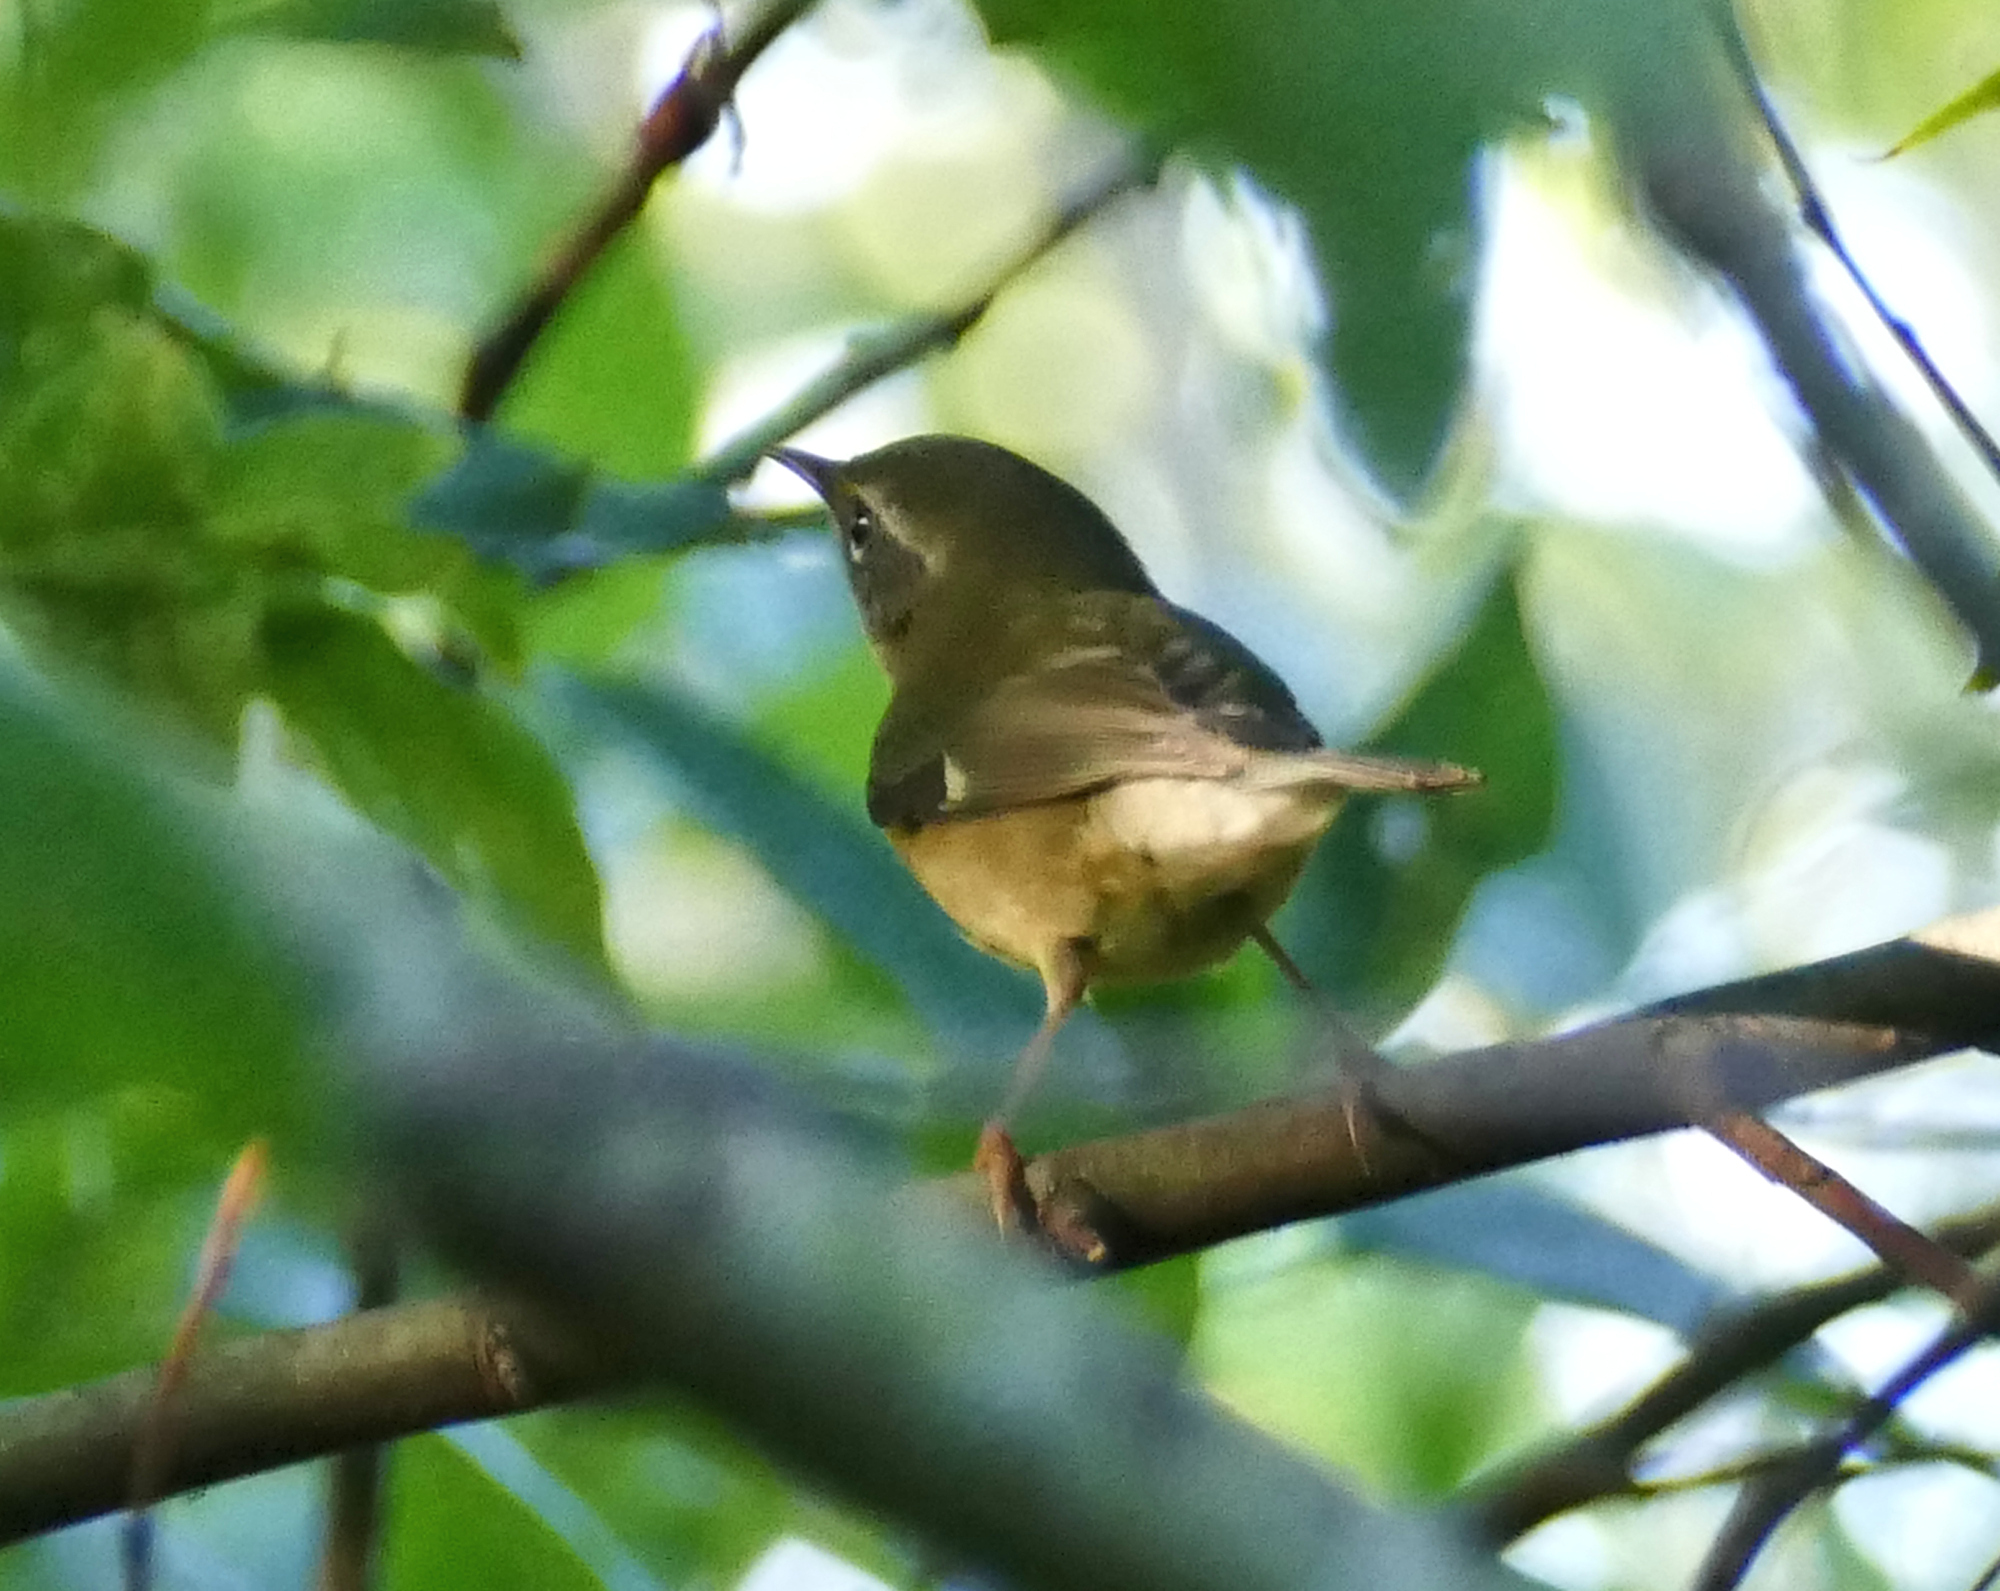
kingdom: Animalia
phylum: Chordata
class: Aves
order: Passeriformes
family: Parulidae
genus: Setophaga
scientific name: Setophaga caerulescens
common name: Black-throated blue warbler
